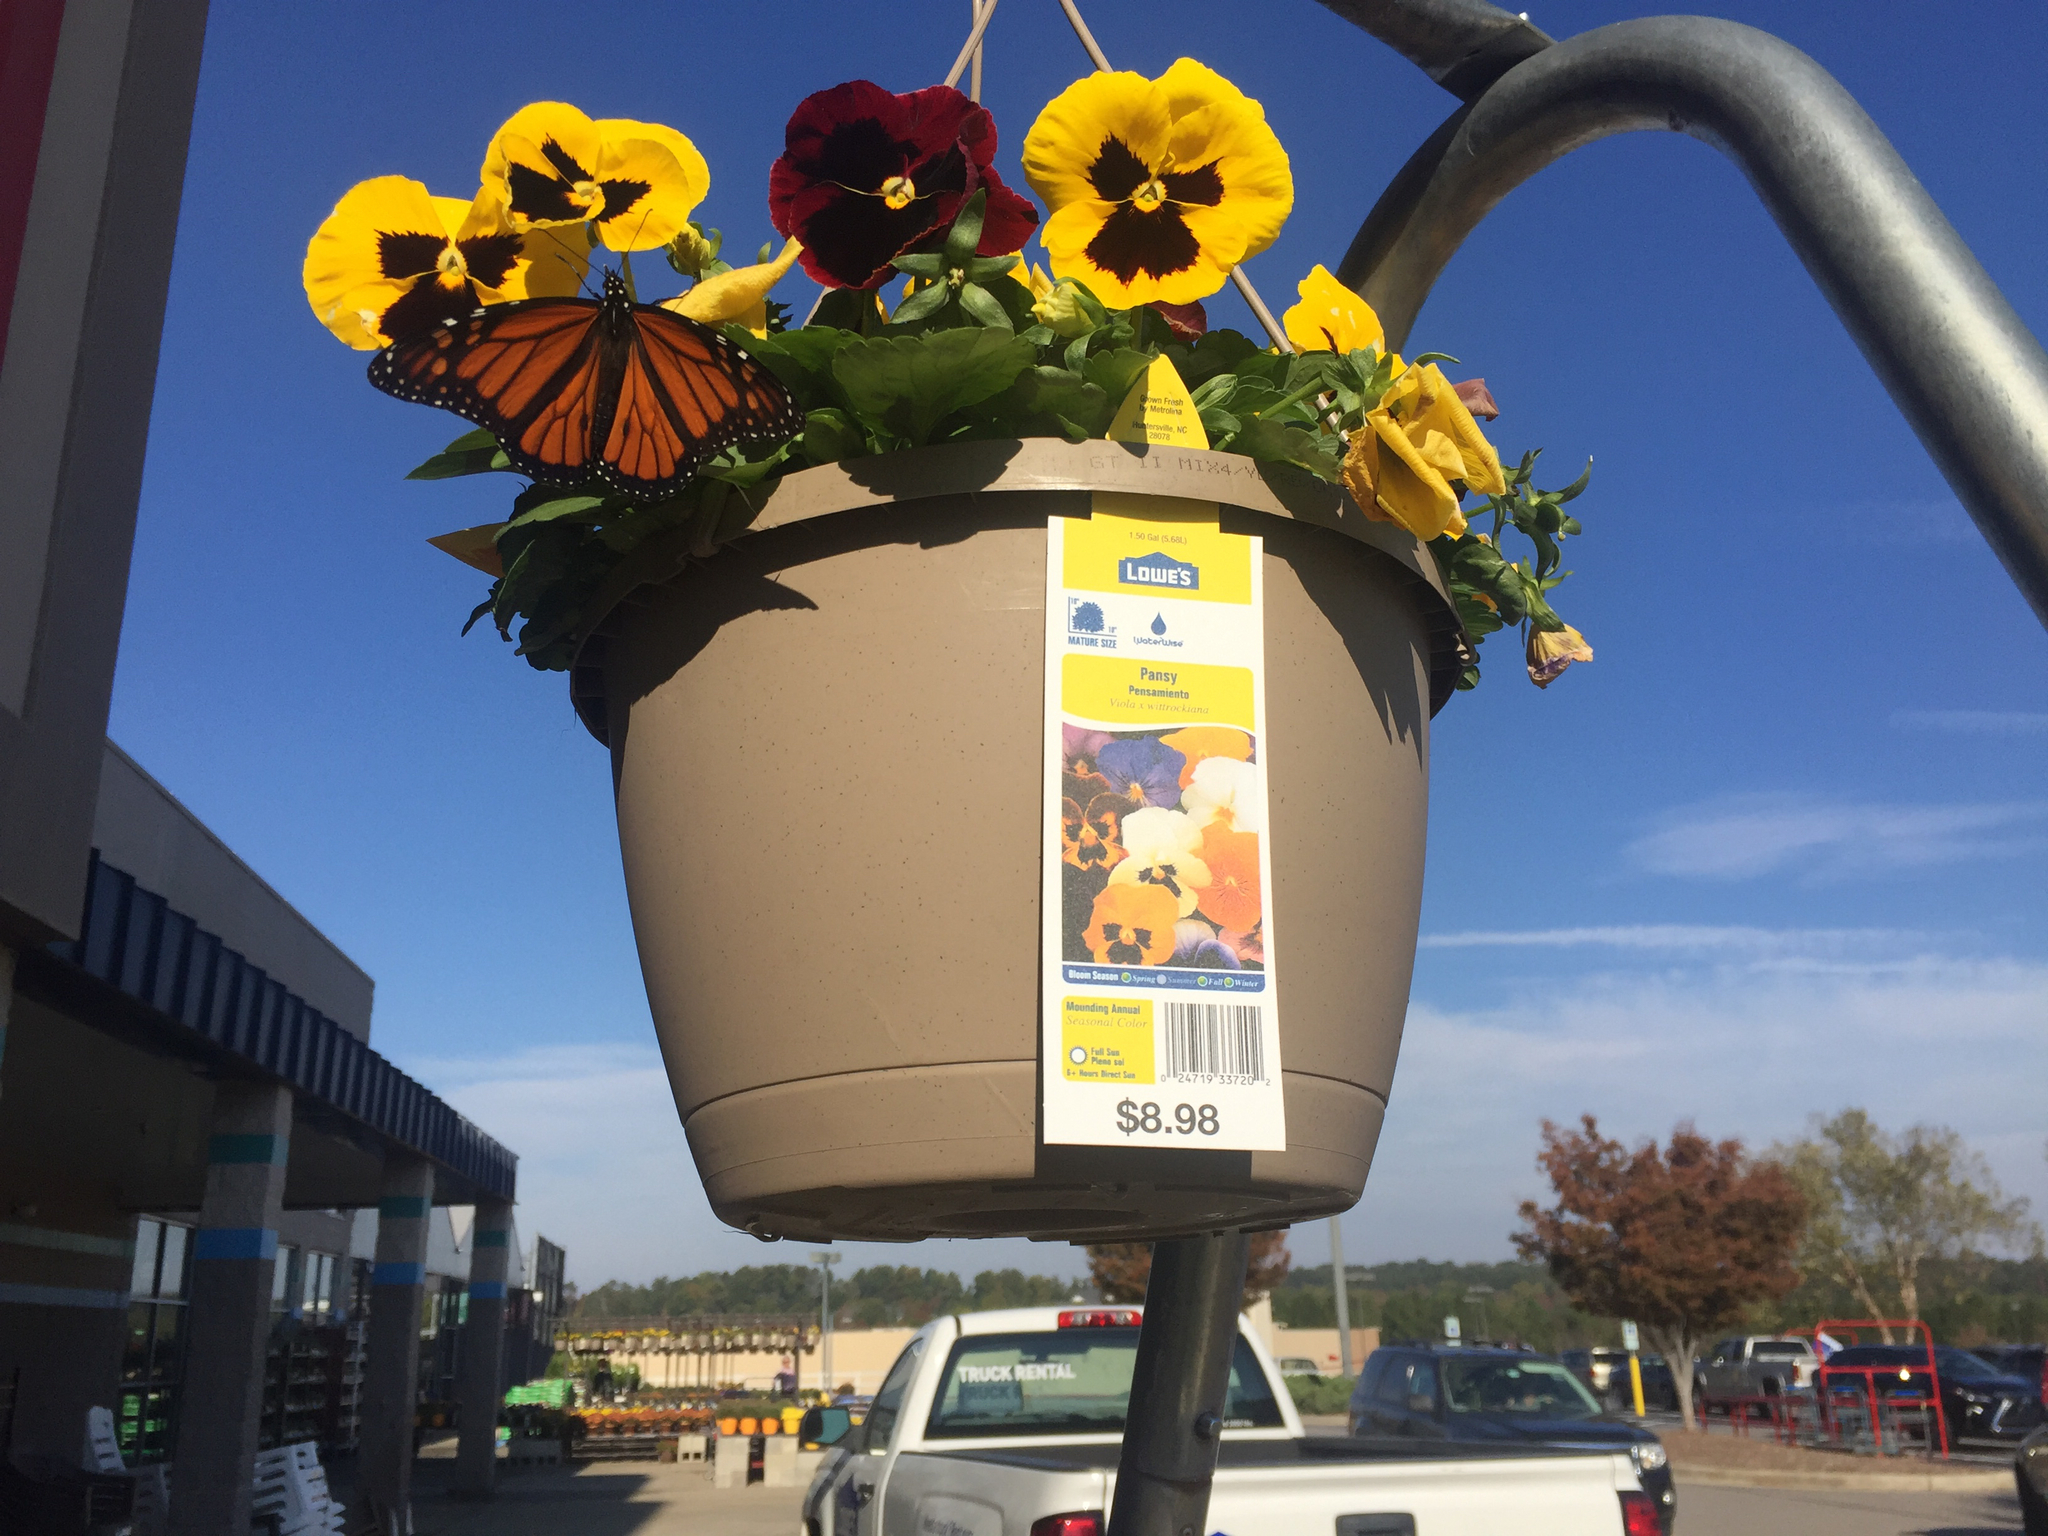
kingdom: Animalia
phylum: Arthropoda
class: Insecta
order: Lepidoptera
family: Nymphalidae
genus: Danaus
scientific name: Danaus plexippus
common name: Monarch
